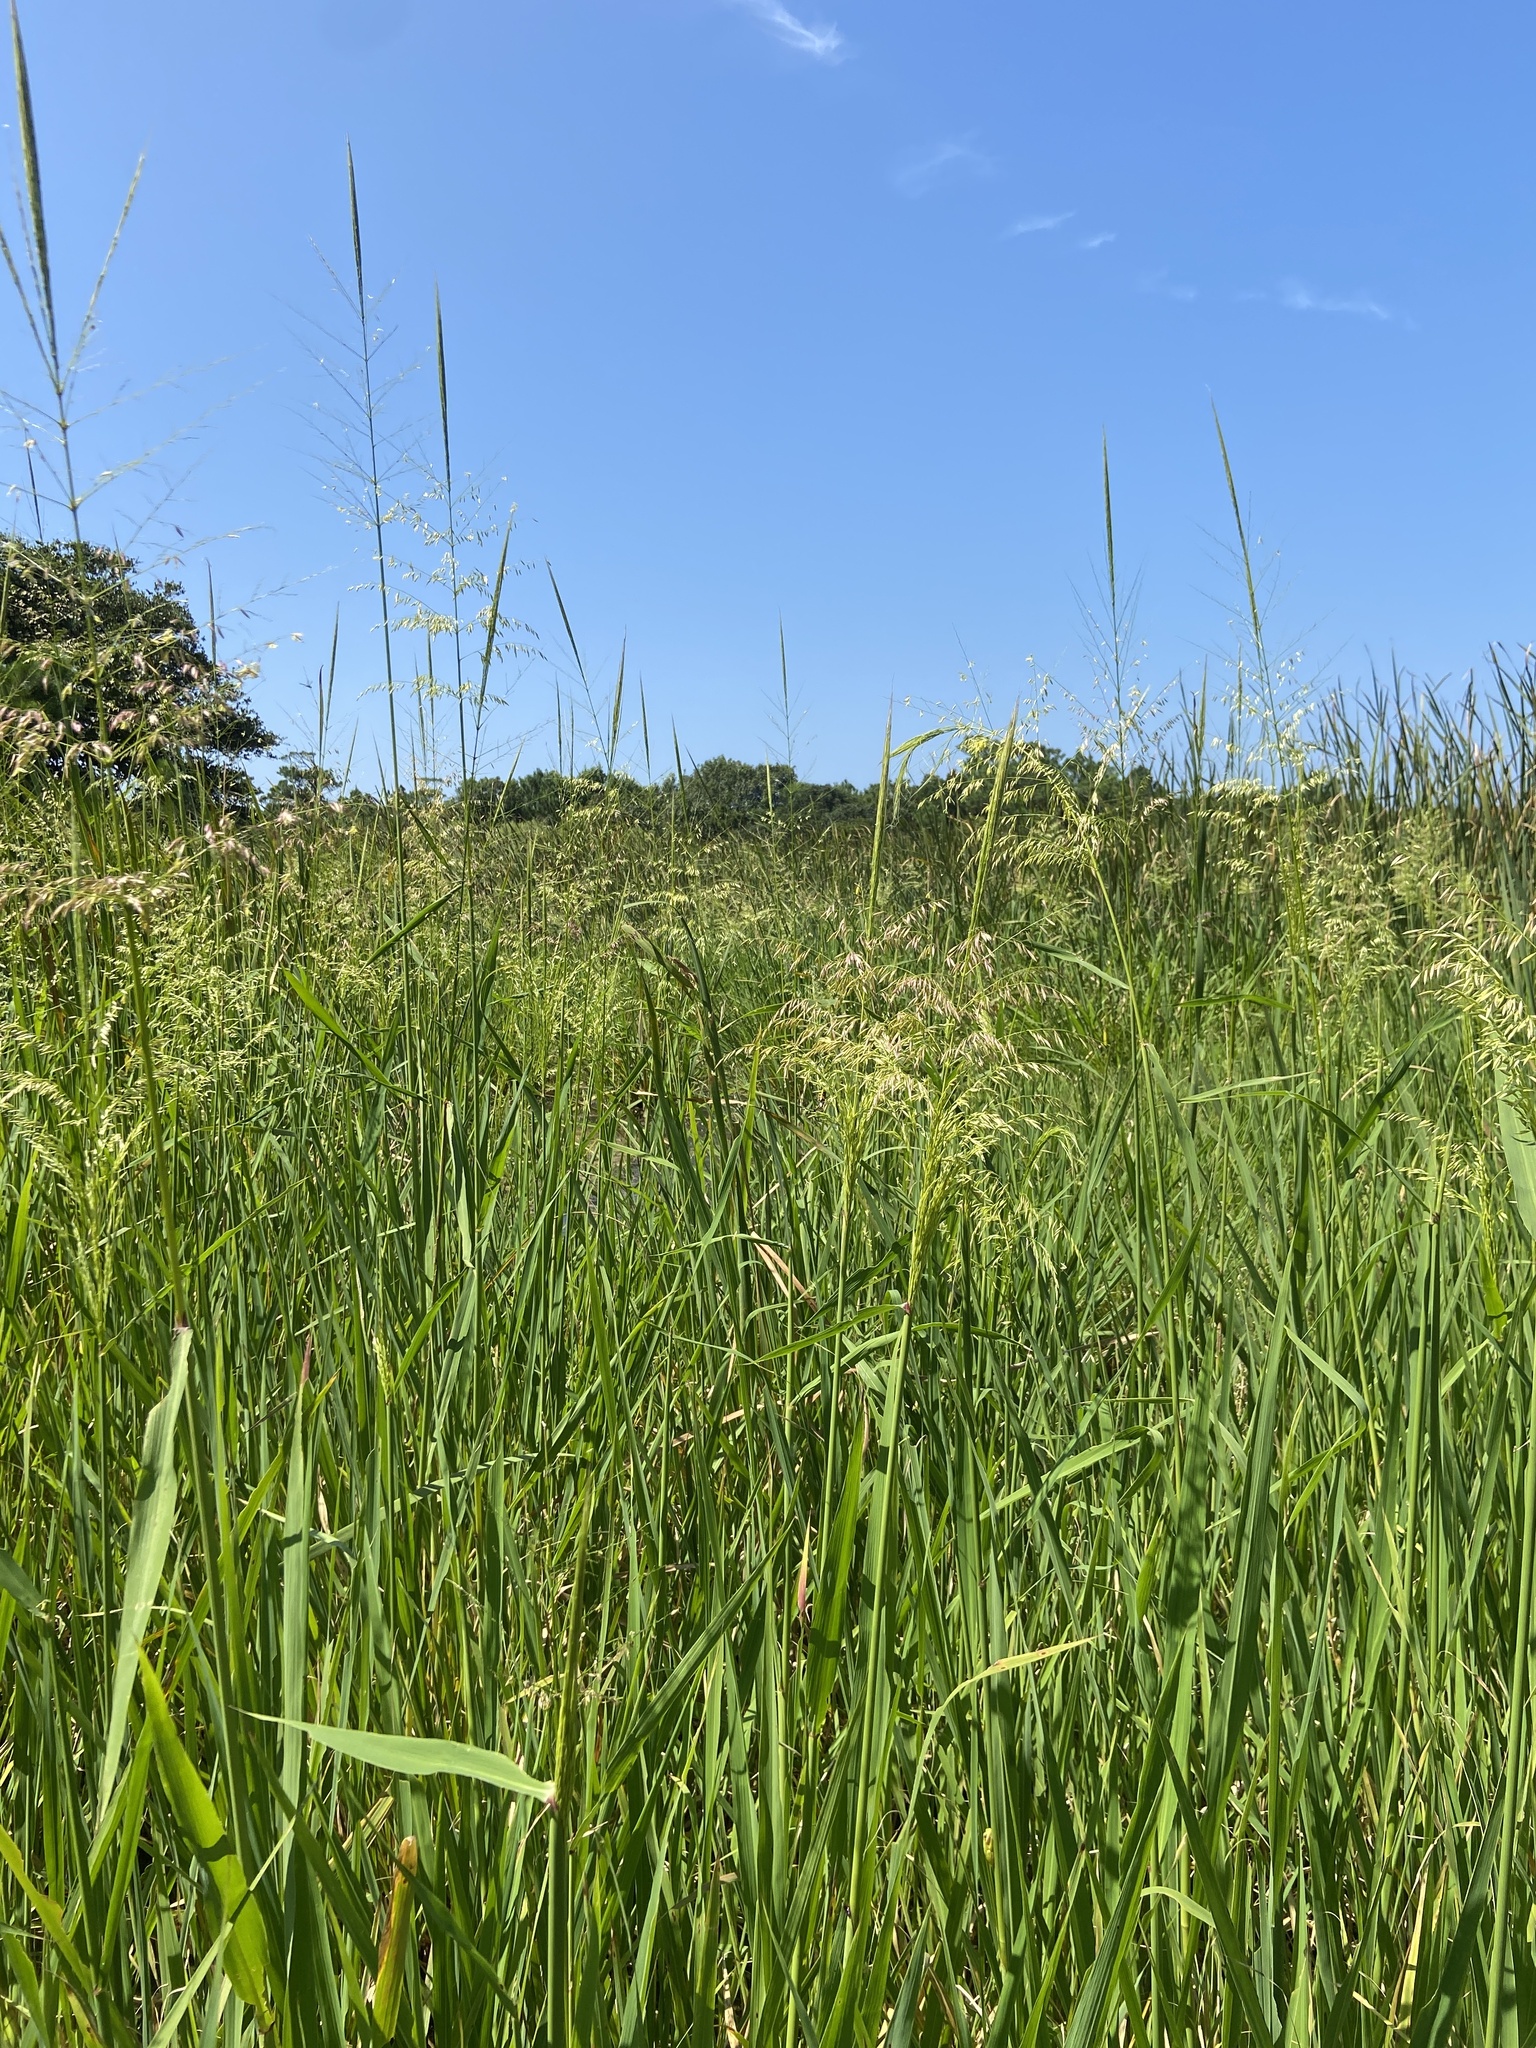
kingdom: Plantae
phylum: Tracheophyta
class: Liliopsida
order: Poales
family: Poaceae
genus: Zizania
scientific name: Zizania aquatica
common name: Annual wildrice
